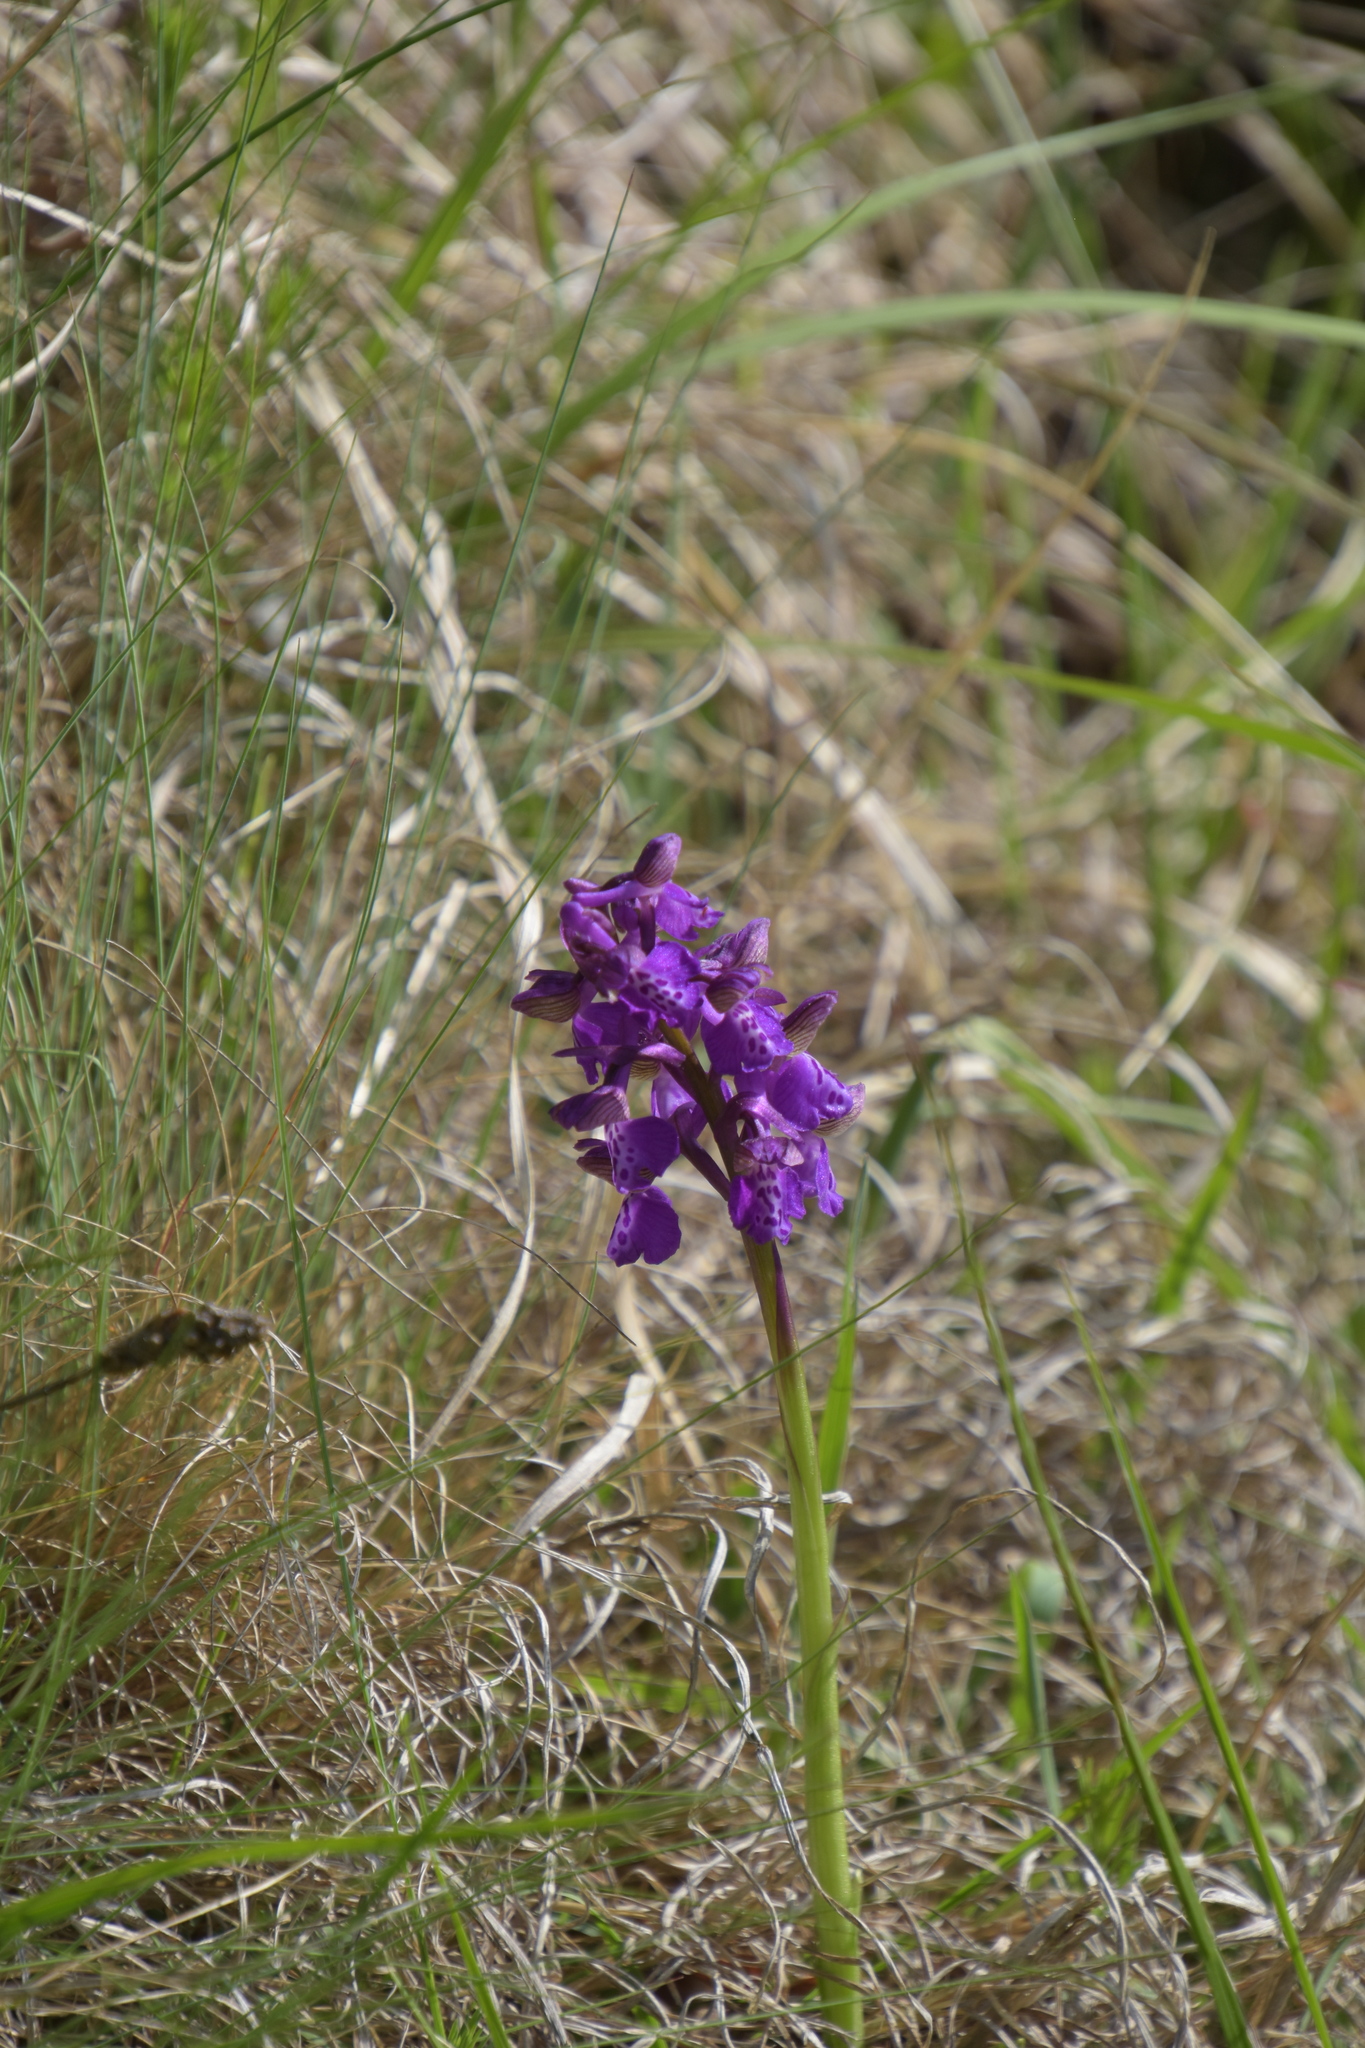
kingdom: Plantae
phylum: Tracheophyta
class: Liliopsida
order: Asparagales
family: Orchidaceae
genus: Anacamptis
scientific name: Anacamptis morio
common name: Green-winged orchid
